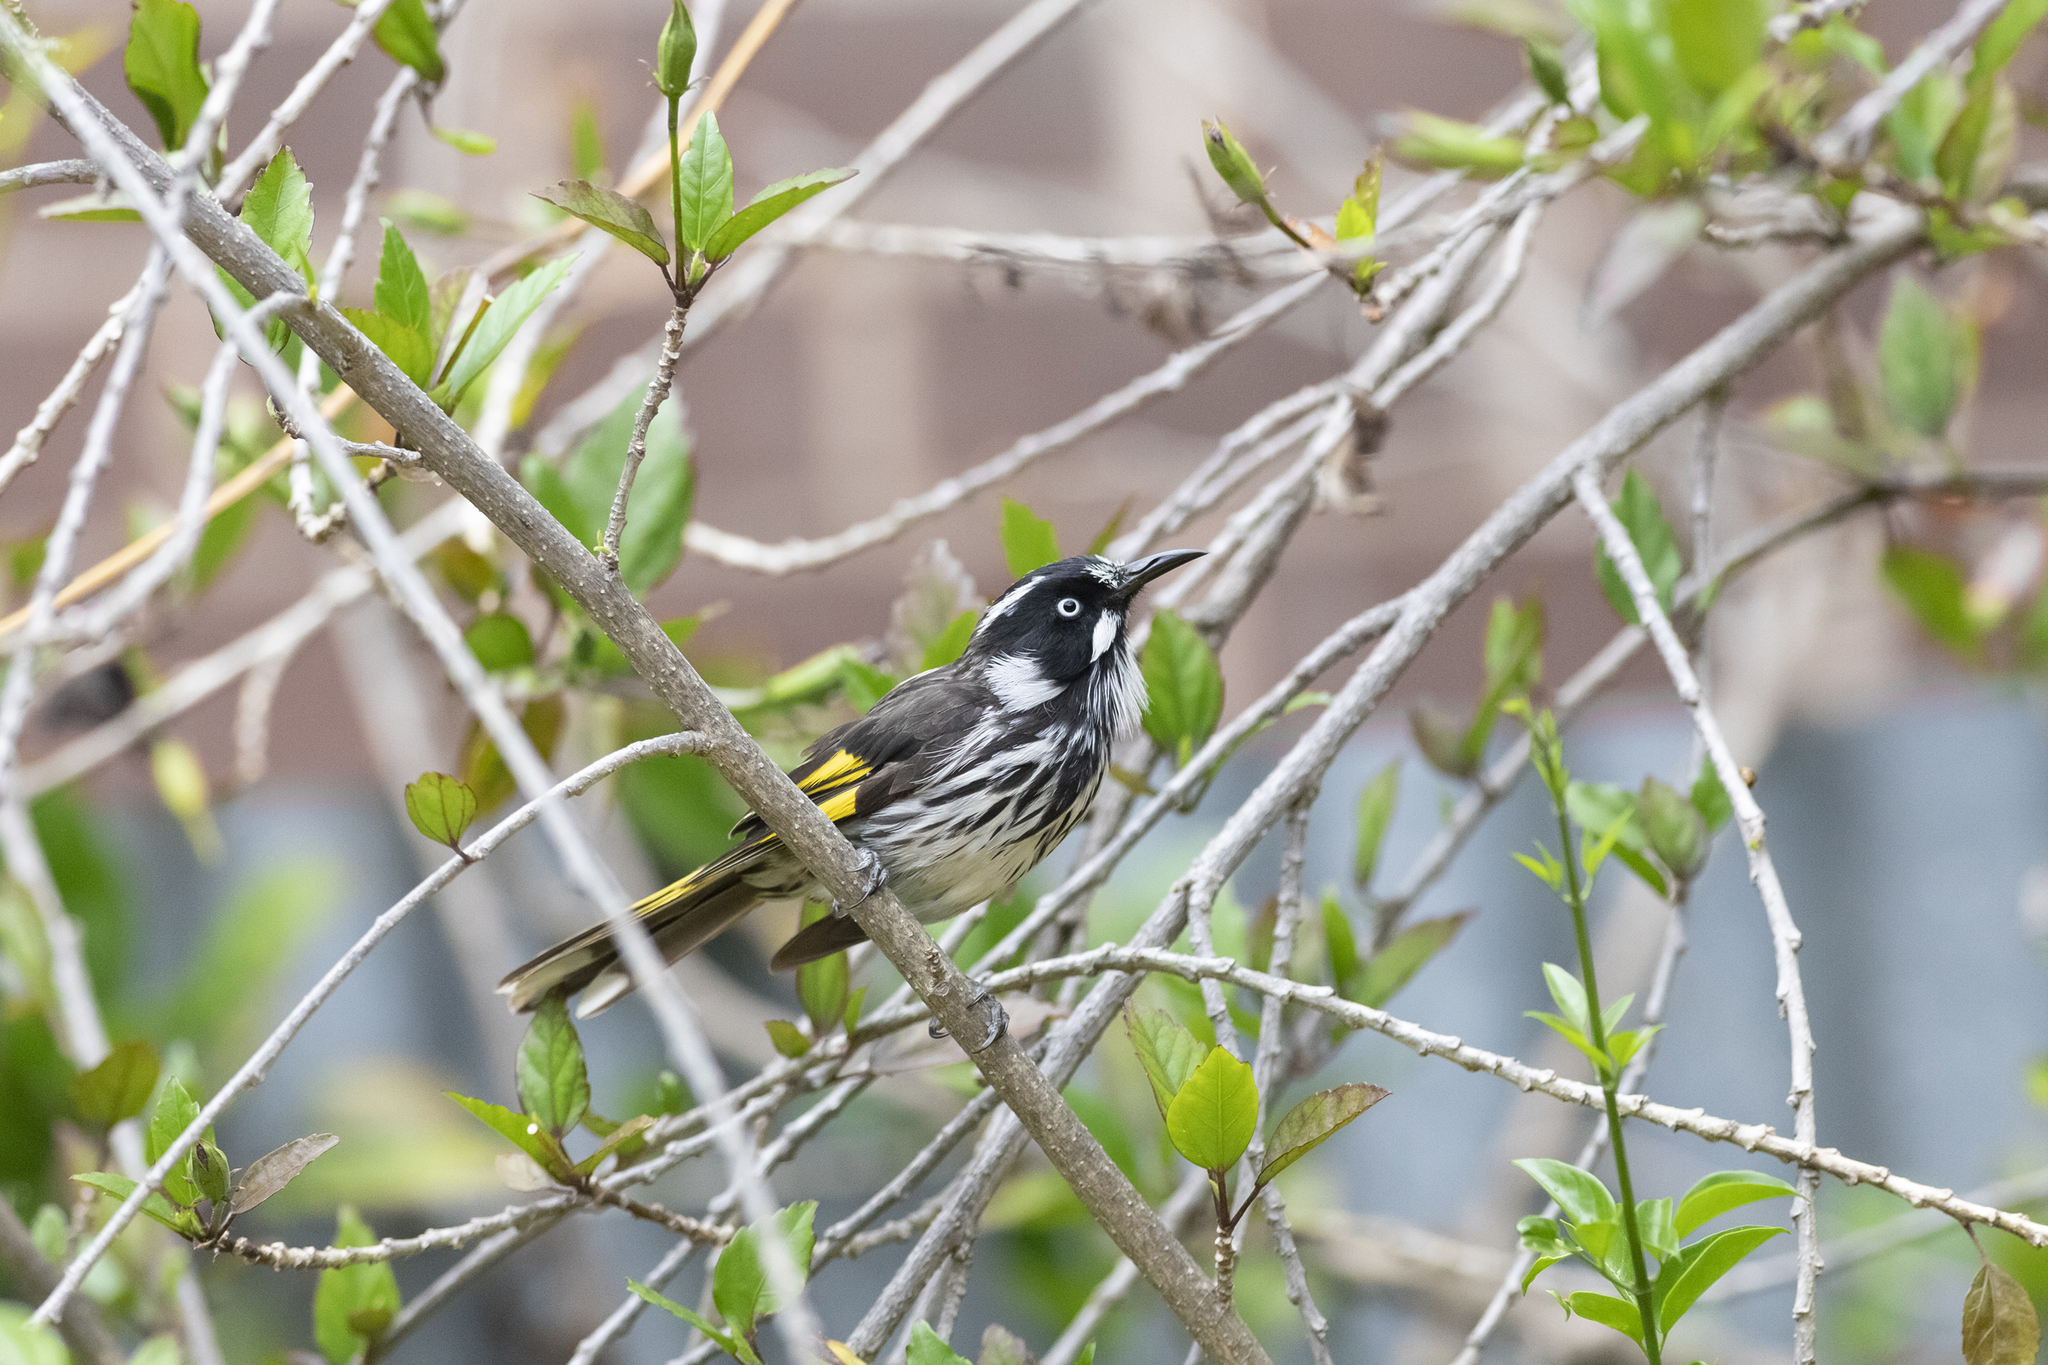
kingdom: Animalia
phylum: Chordata
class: Aves
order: Passeriformes
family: Meliphagidae
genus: Phylidonyris
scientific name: Phylidonyris novaehollandiae
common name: New holland honeyeater
